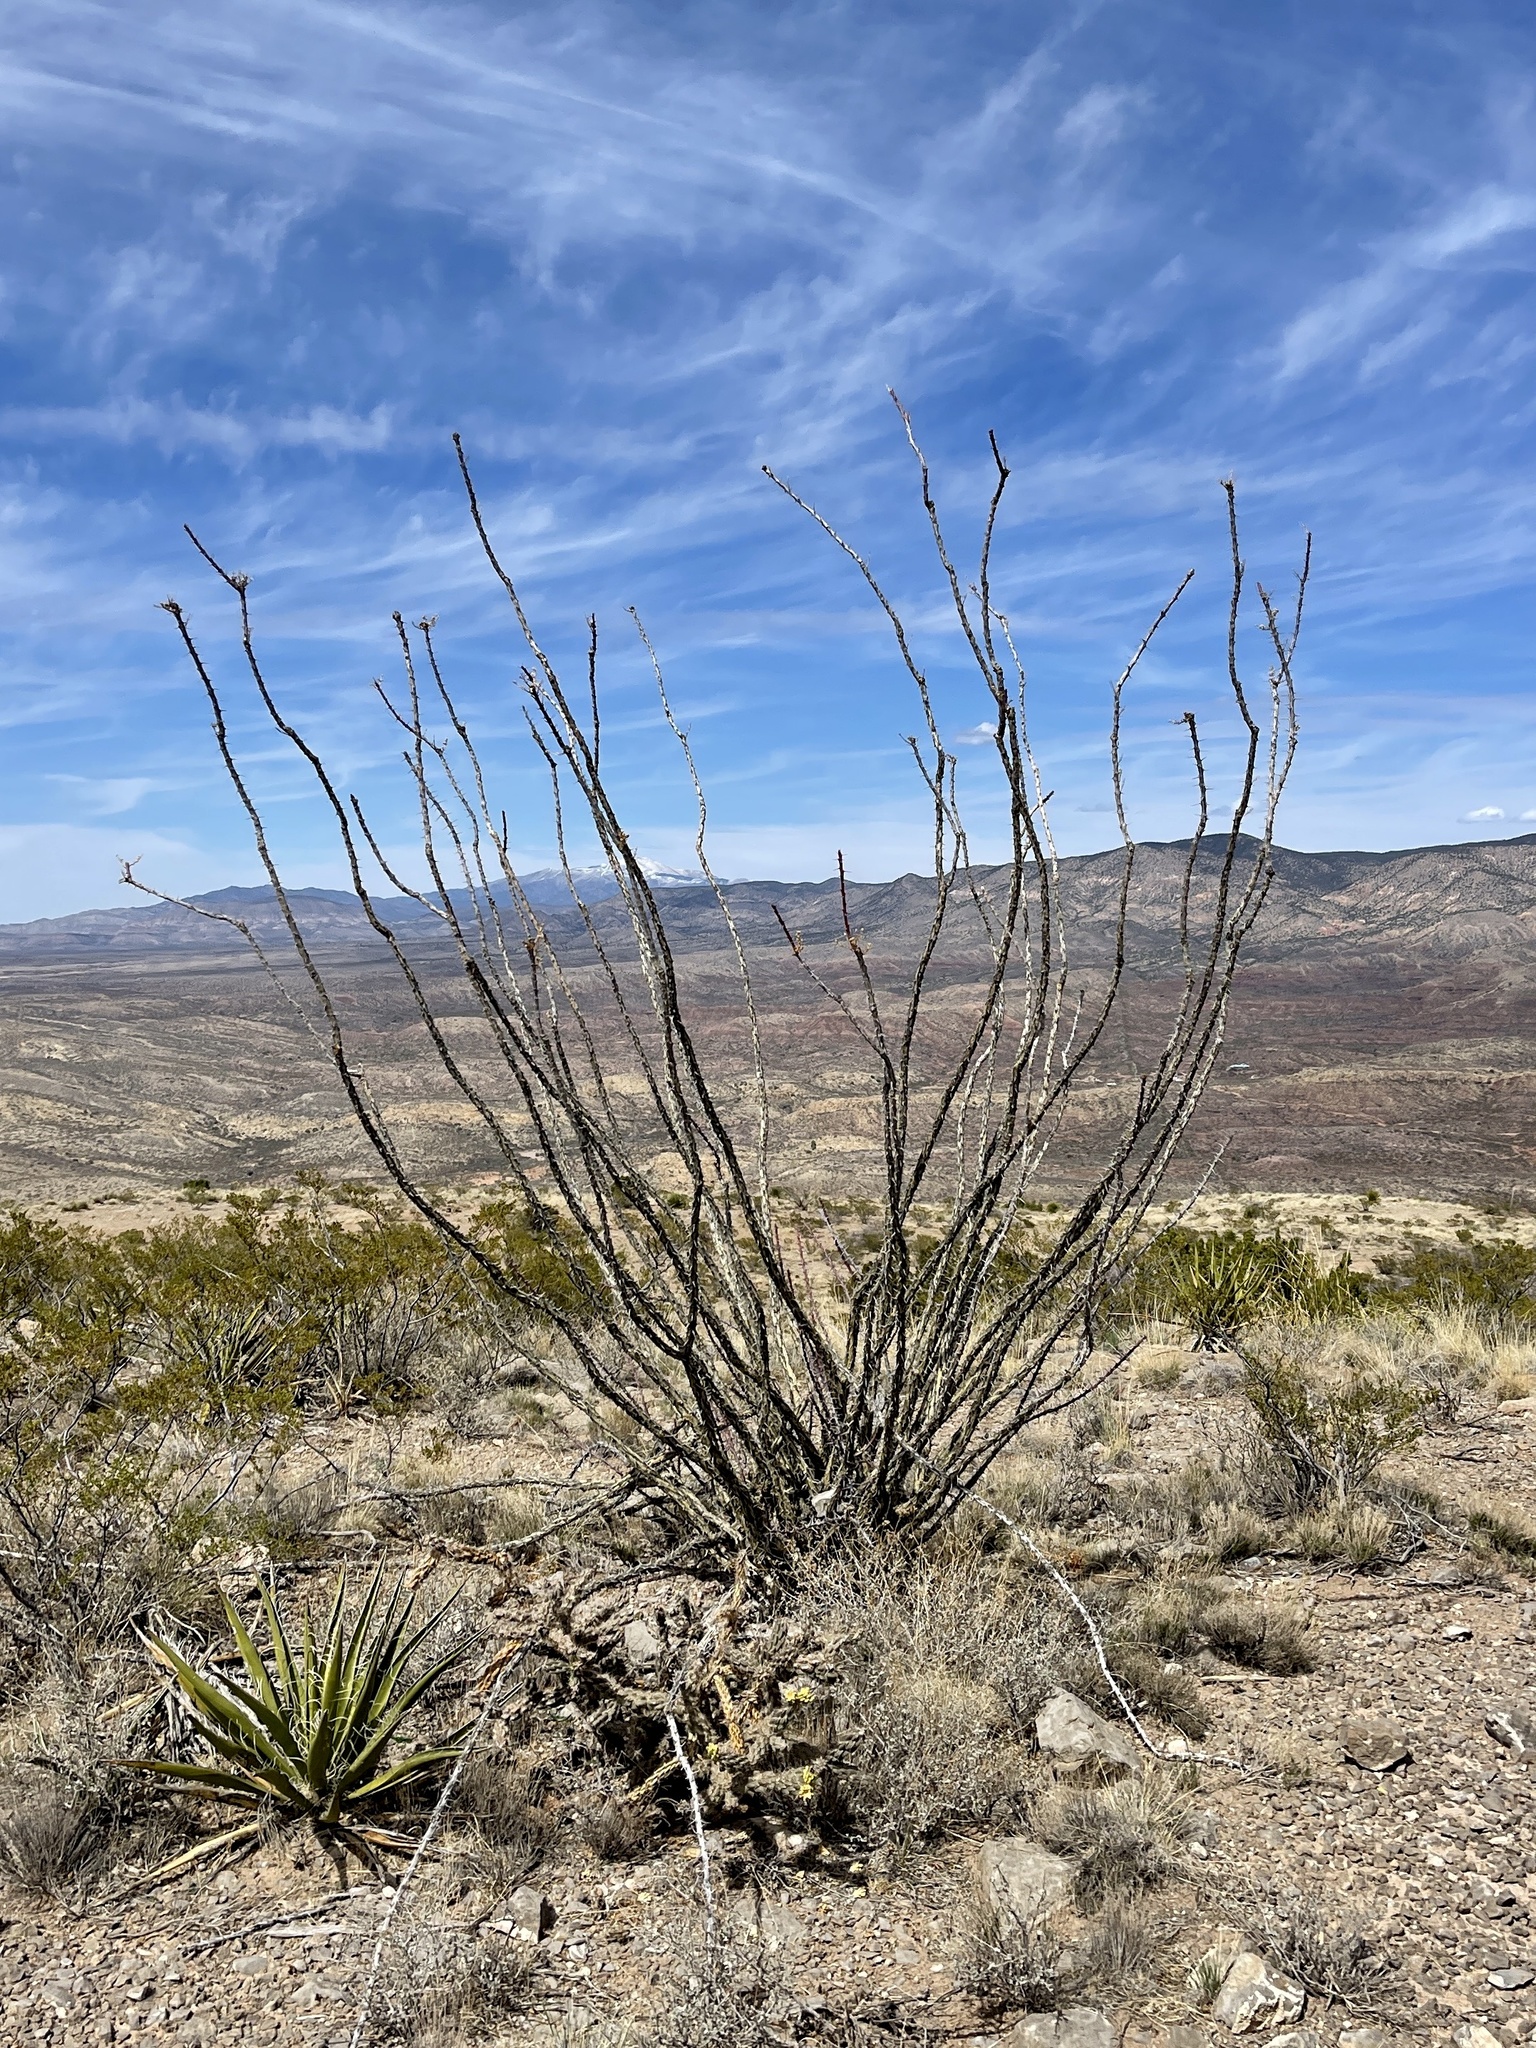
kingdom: Plantae
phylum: Tracheophyta
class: Magnoliopsida
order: Ericales
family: Fouquieriaceae
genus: Fouquieria
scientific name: Fouquieria splendens
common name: Vine-cactus
